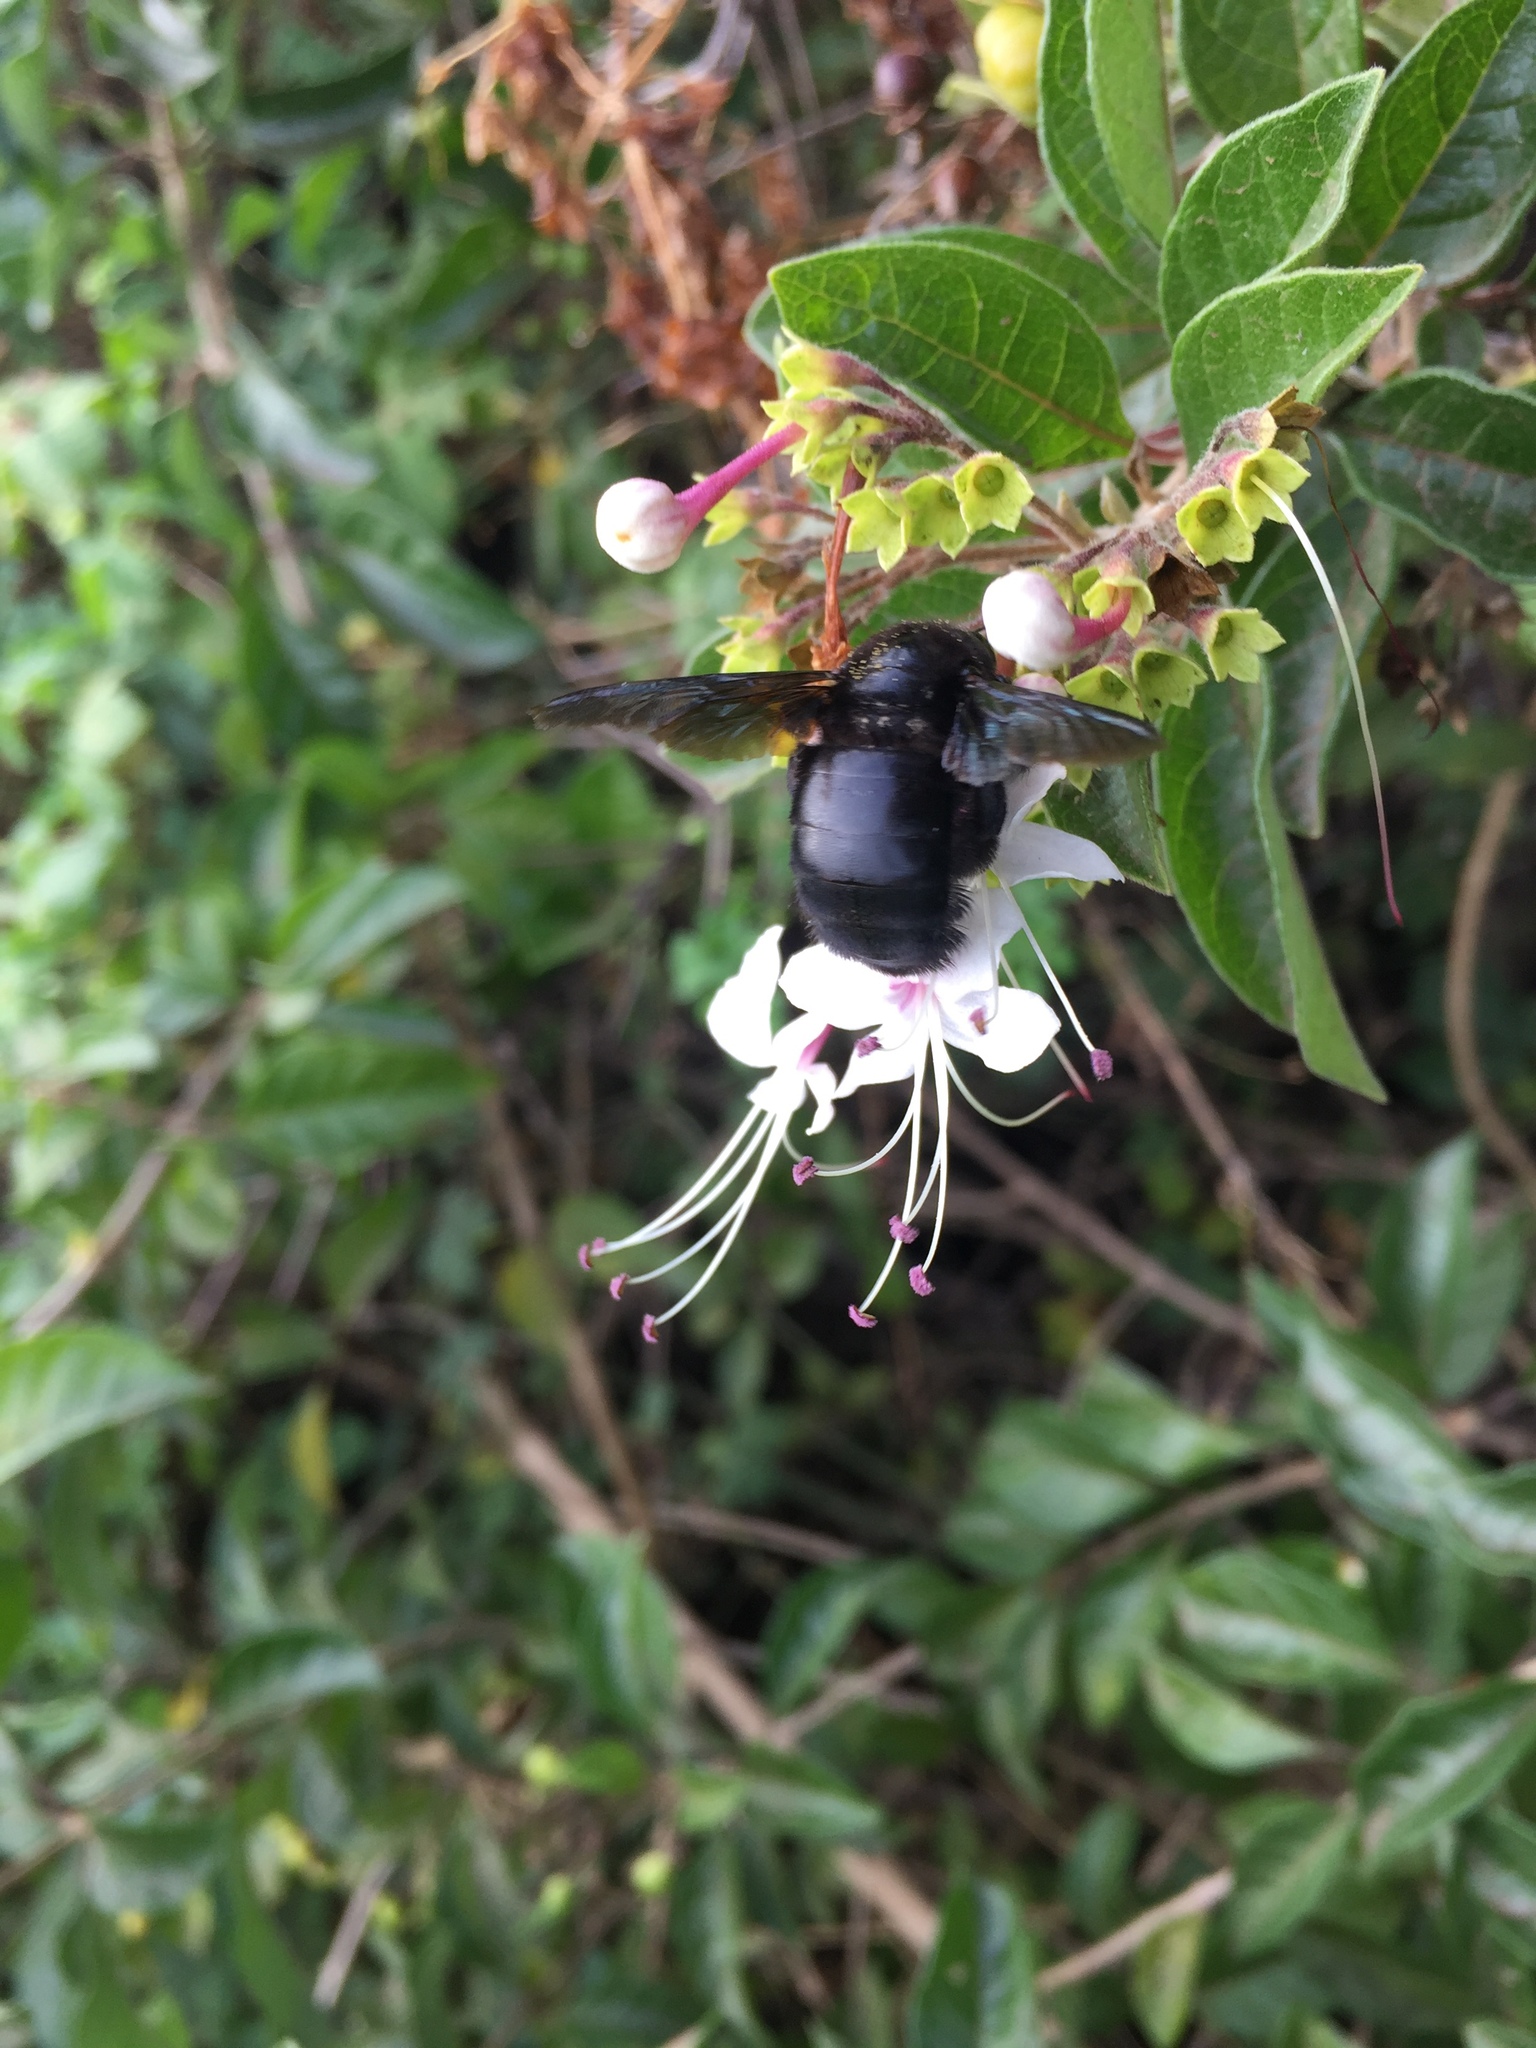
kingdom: Animalia
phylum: Arthropoda
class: Insecta
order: Hymenoptera
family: Apidae
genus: Xylocopa
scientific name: Xylocopa darwini
